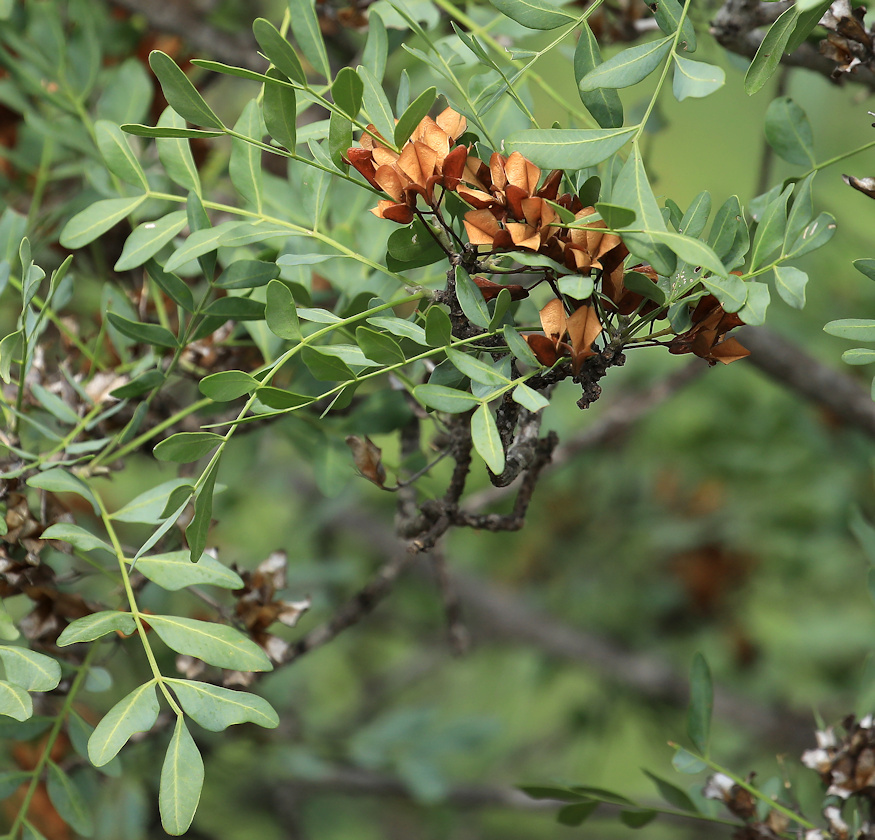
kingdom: Plantae
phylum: Tracheophyta
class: Magnoliopsida
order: Sapindales
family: Rutaceae
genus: Ptaeroxylon
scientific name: Ptaeroxylon obliquum
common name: Sneezewood
